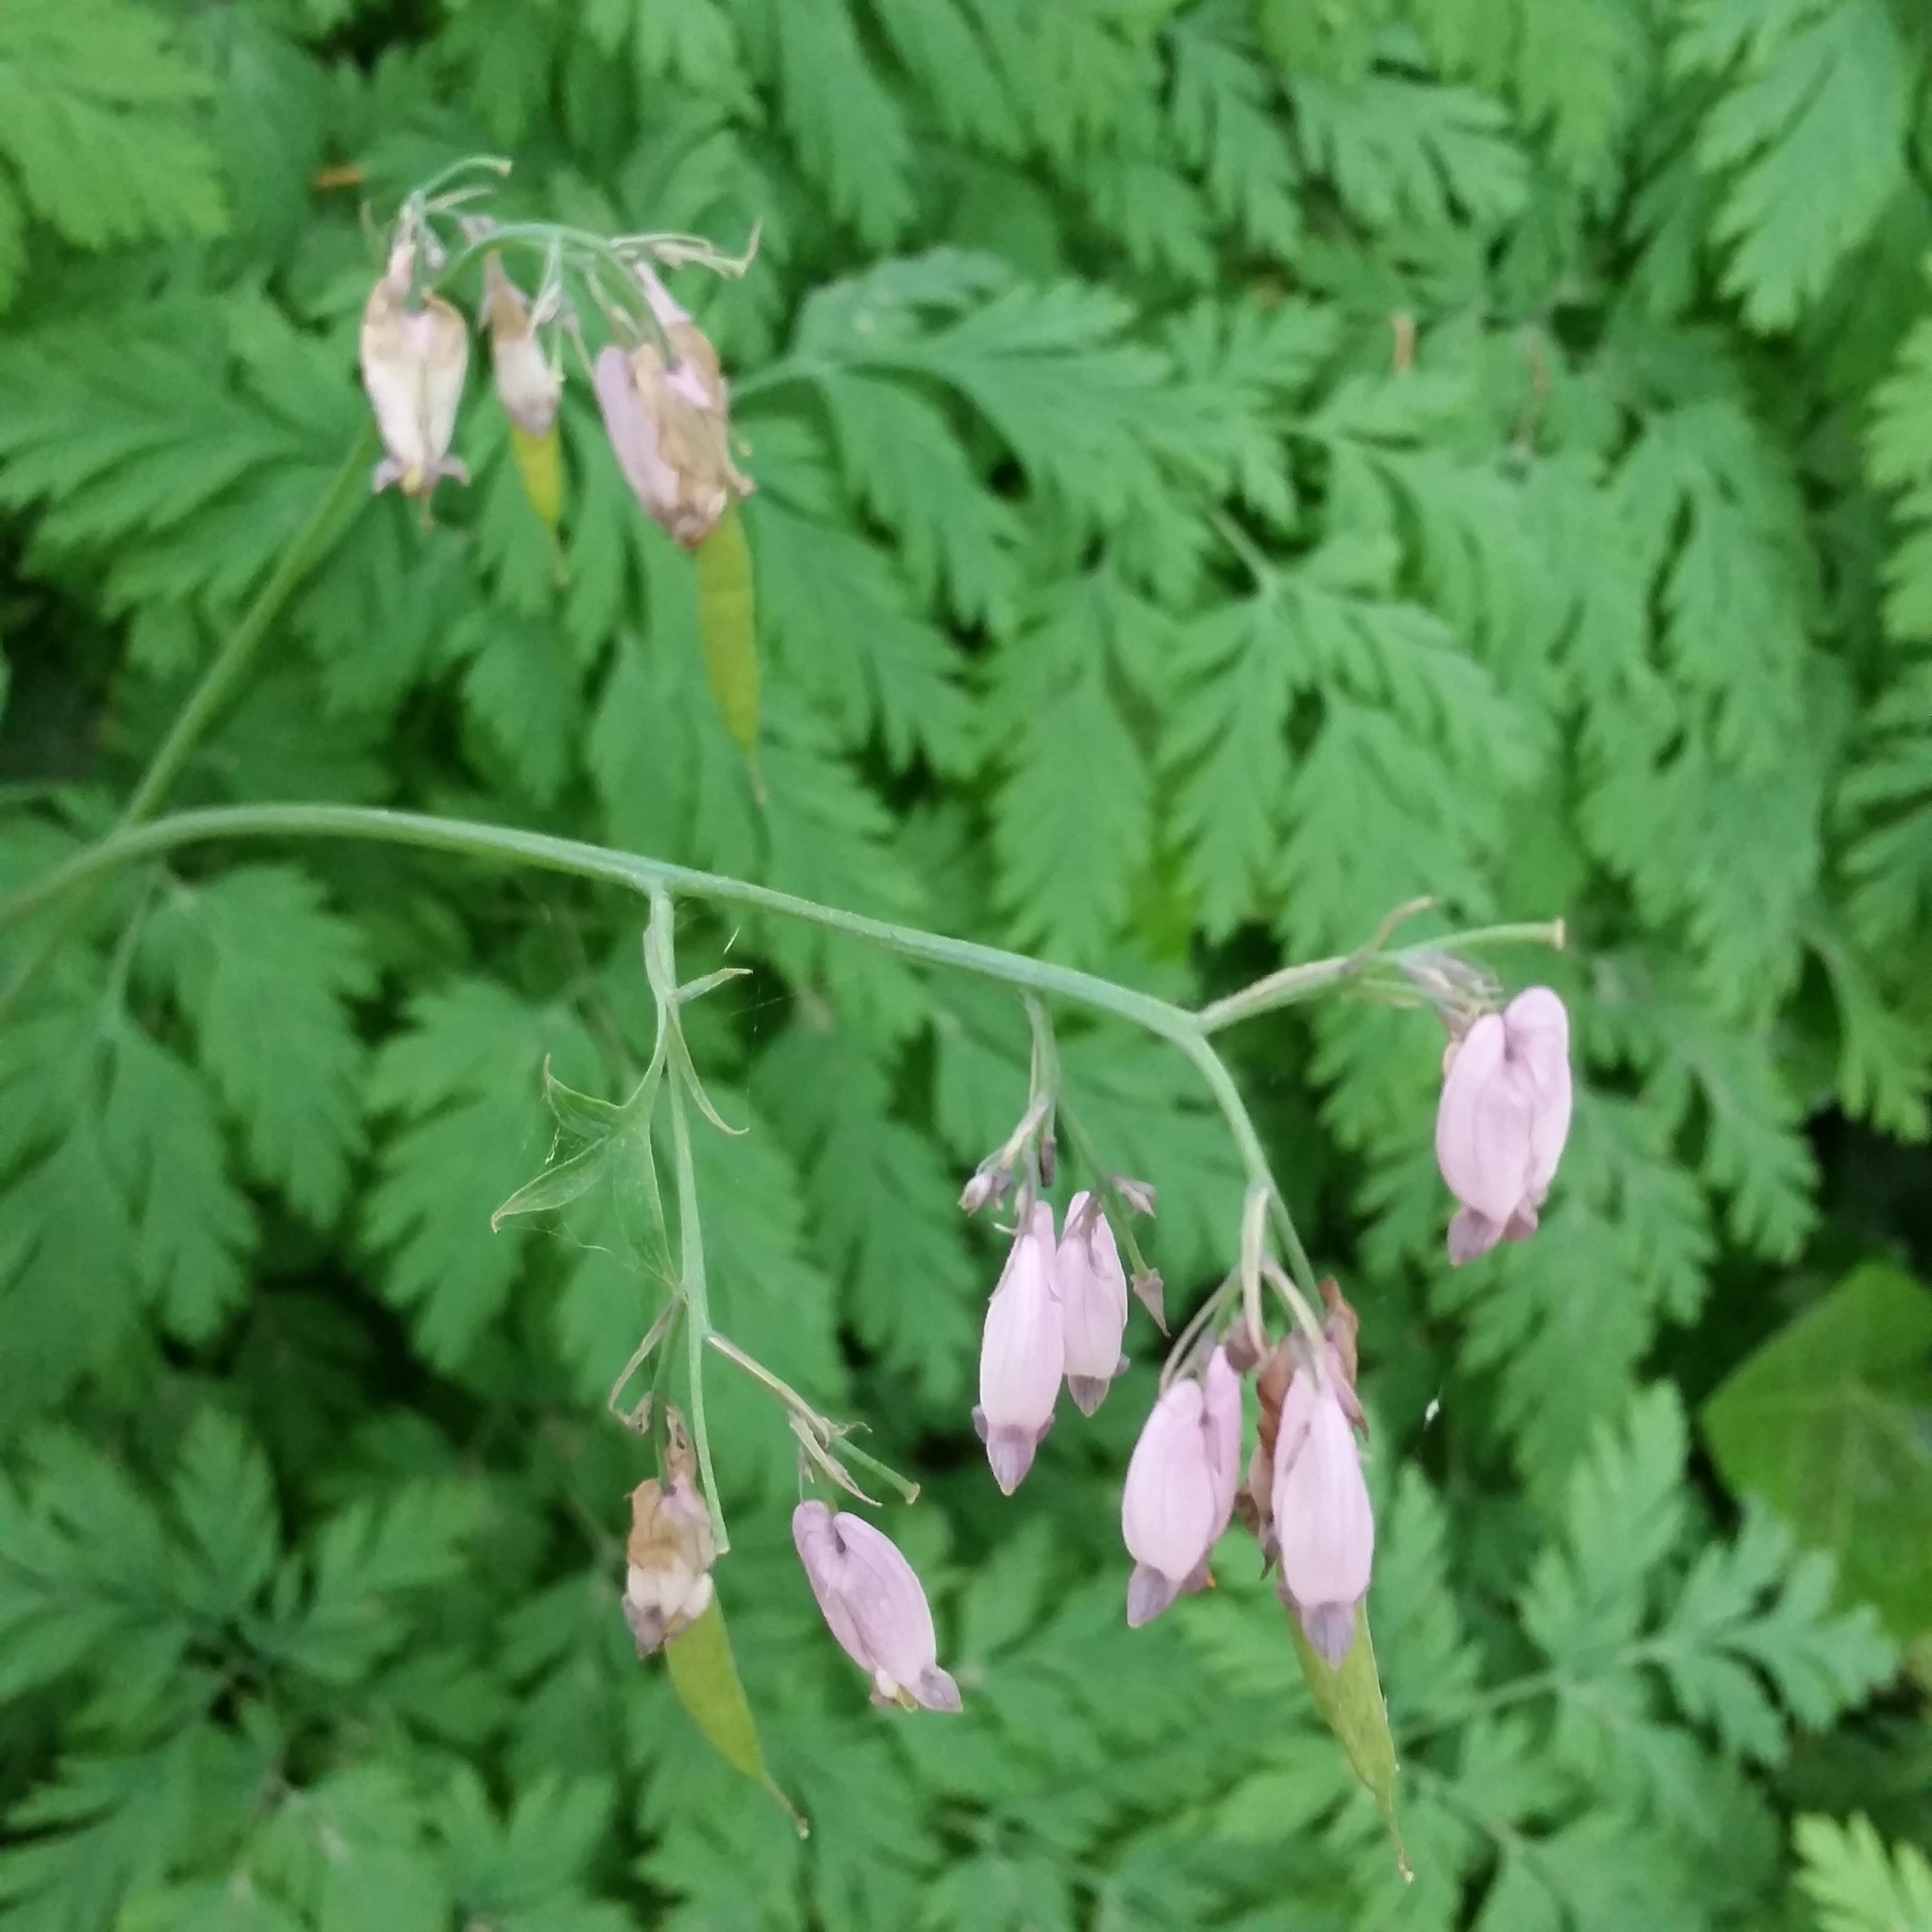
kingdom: Plantae
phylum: Tracheophyta
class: Magnoliopsida
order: Ranunculales
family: Papaveraceae
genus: Dicentra
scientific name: Dicentra formosa
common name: Bleeding-heart
